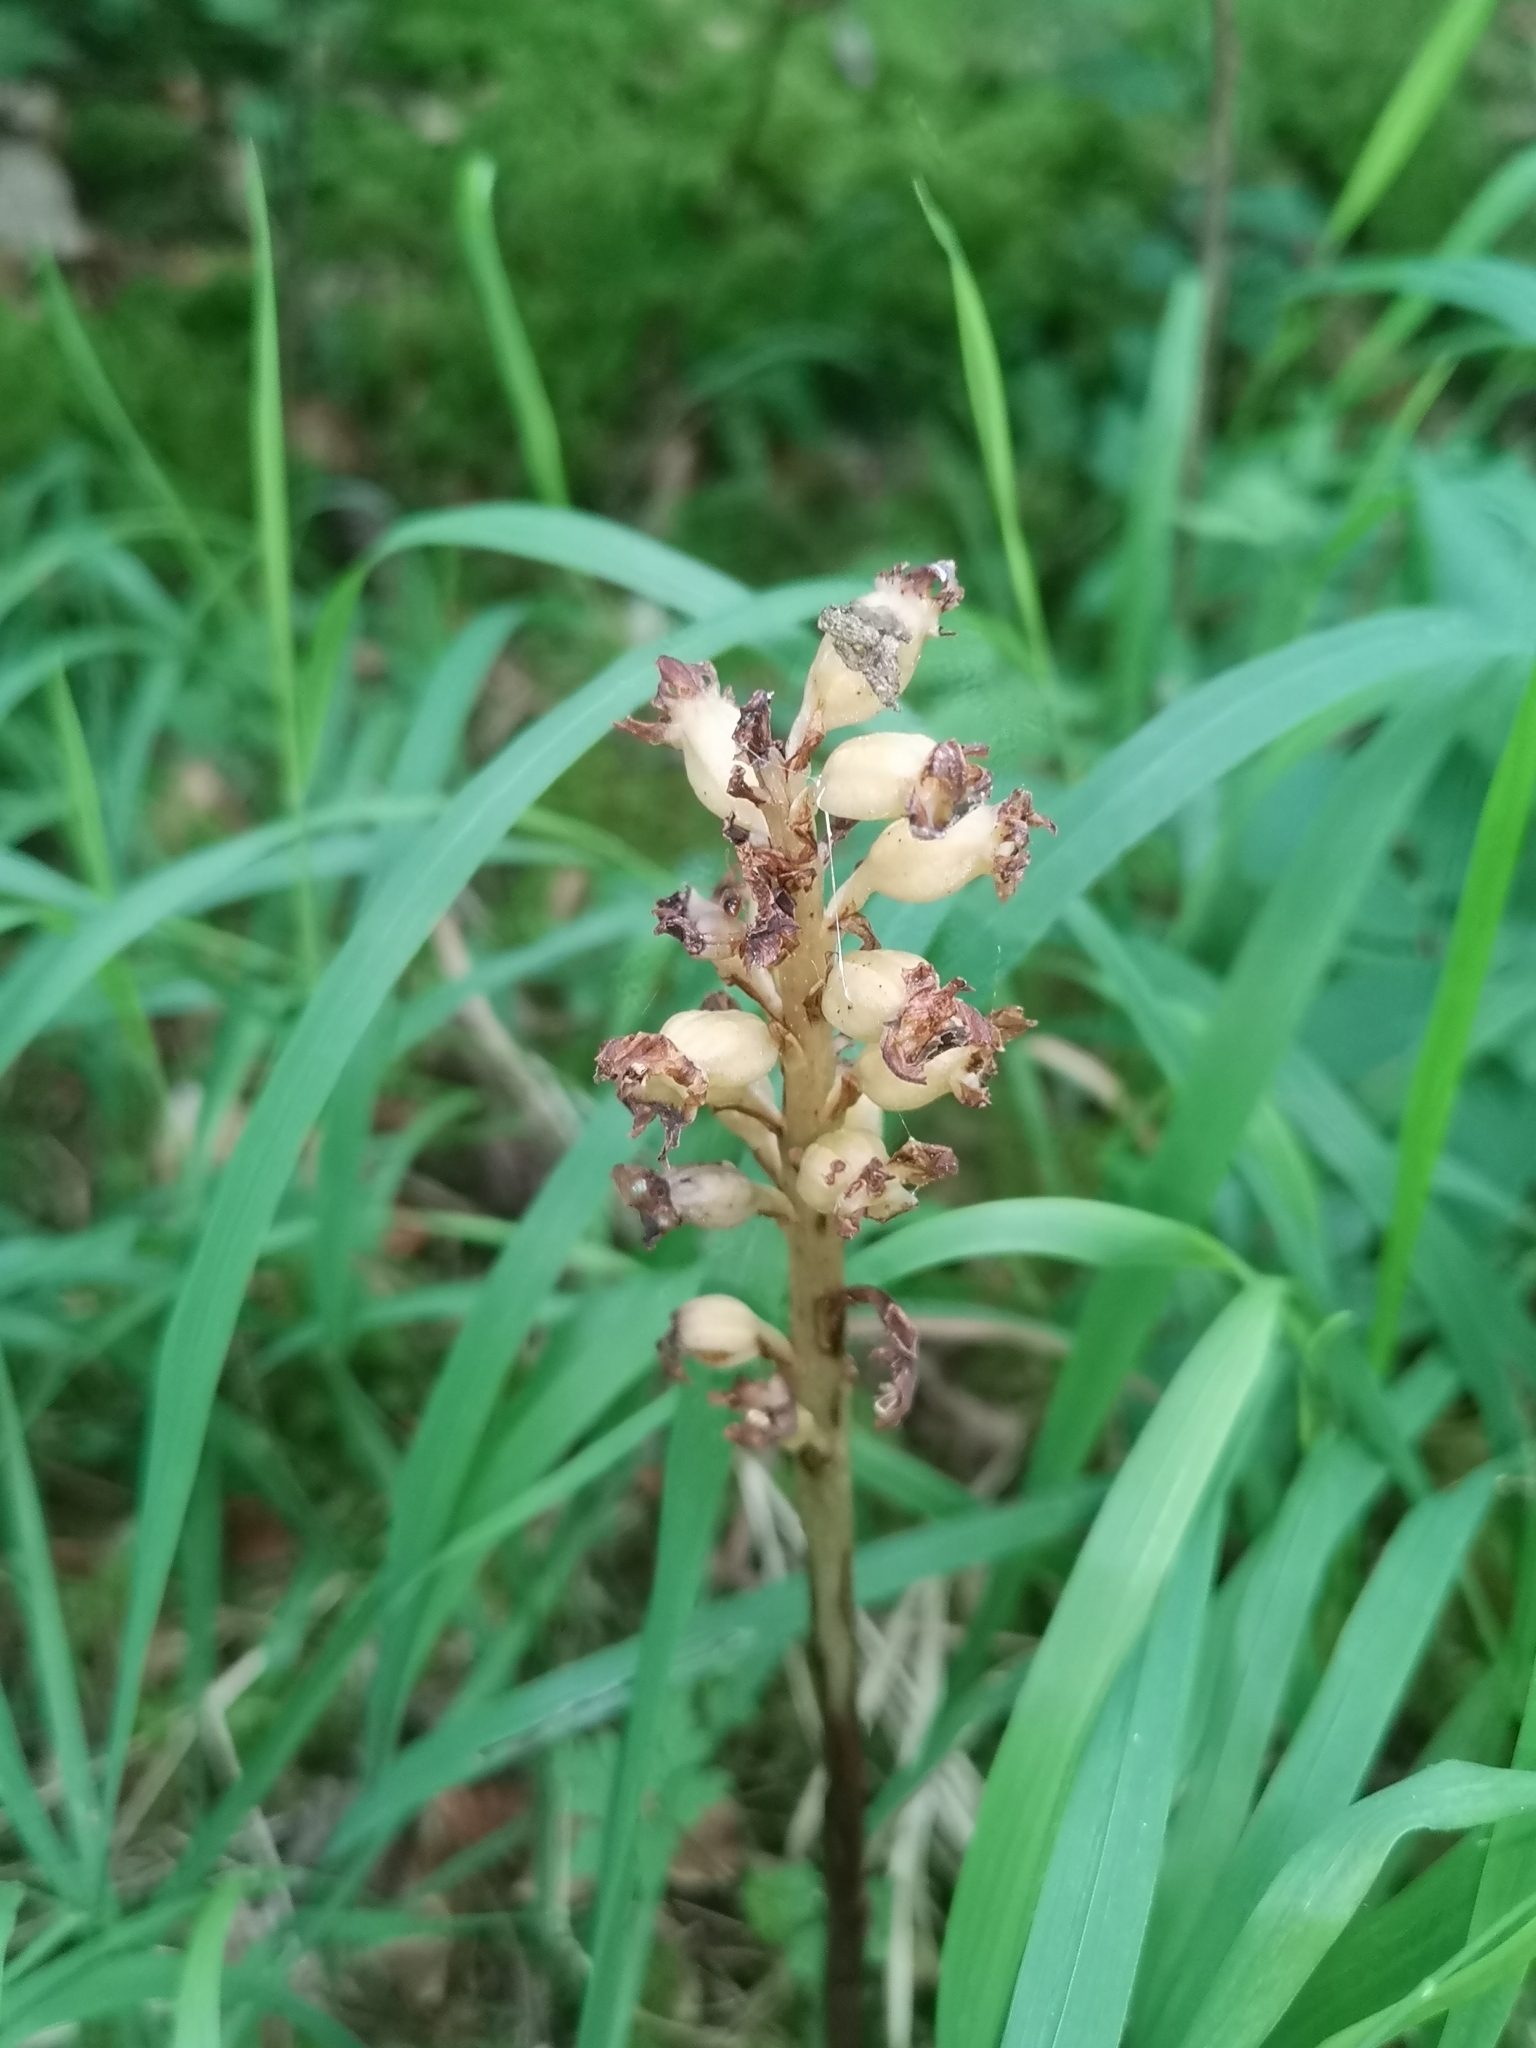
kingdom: Plantae
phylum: Tracheophyta
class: Liliopsida
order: Asparagales
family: Orchidaceae
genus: Neottia
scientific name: Neottia nidus-avis
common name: Bird's-nest orchid
